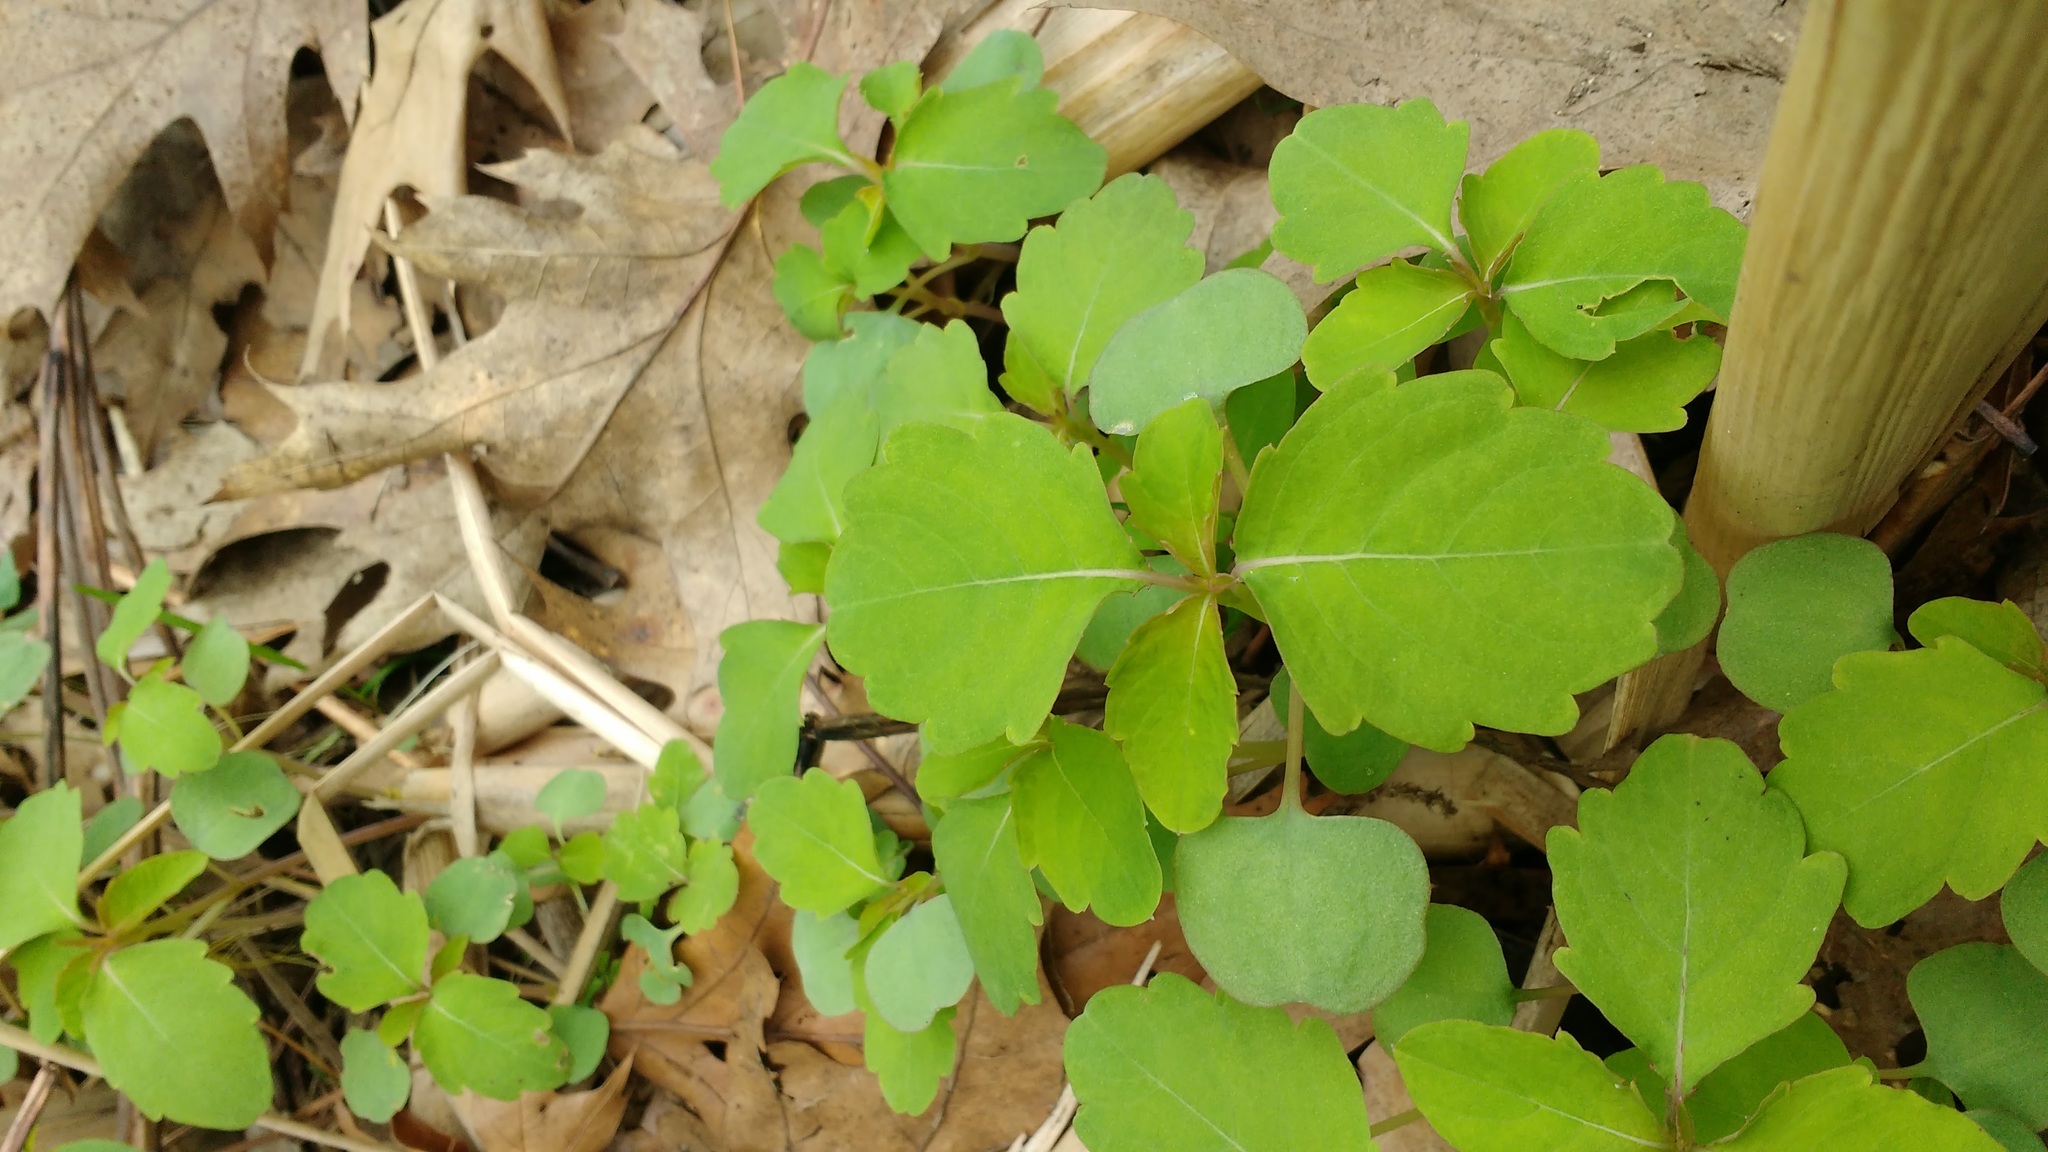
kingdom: Plantae
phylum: Tracheophyta
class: Magnoliopsida
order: Ericales
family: Balsaminaceae
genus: Impatiens
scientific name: Impatiens capensis
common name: Orange balsam
